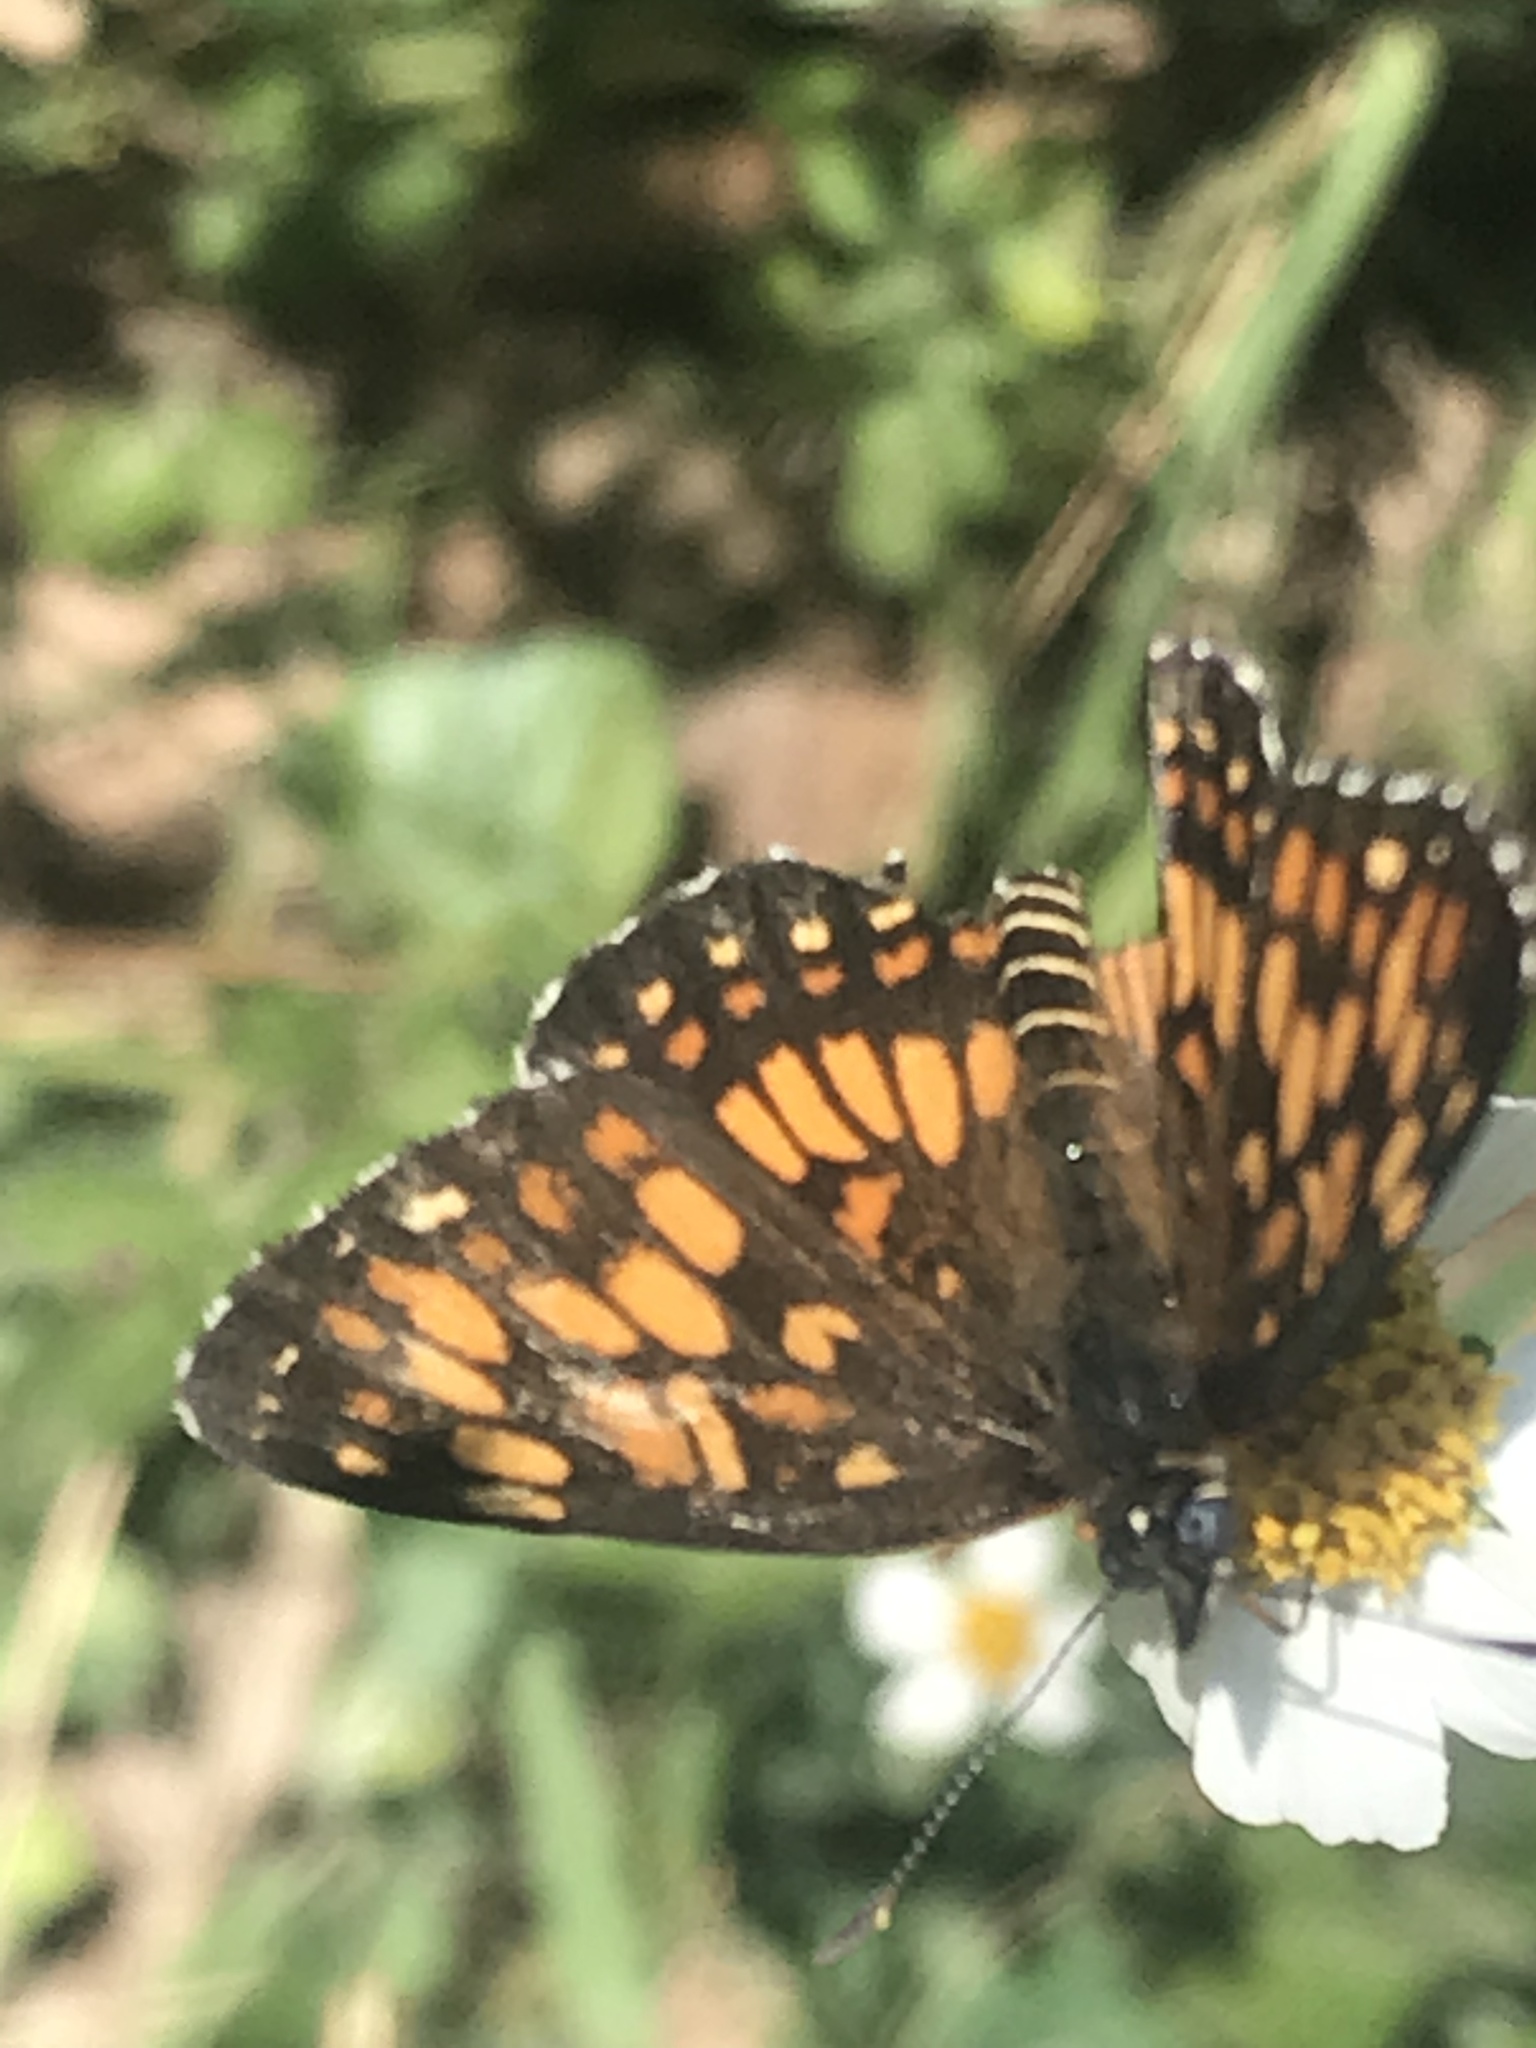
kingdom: Animalia
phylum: Arthropoda
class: Insecta
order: Lepidoptera
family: Nymphalidae
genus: Thessalia
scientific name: Thessalia theona
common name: Nymphalid moth
